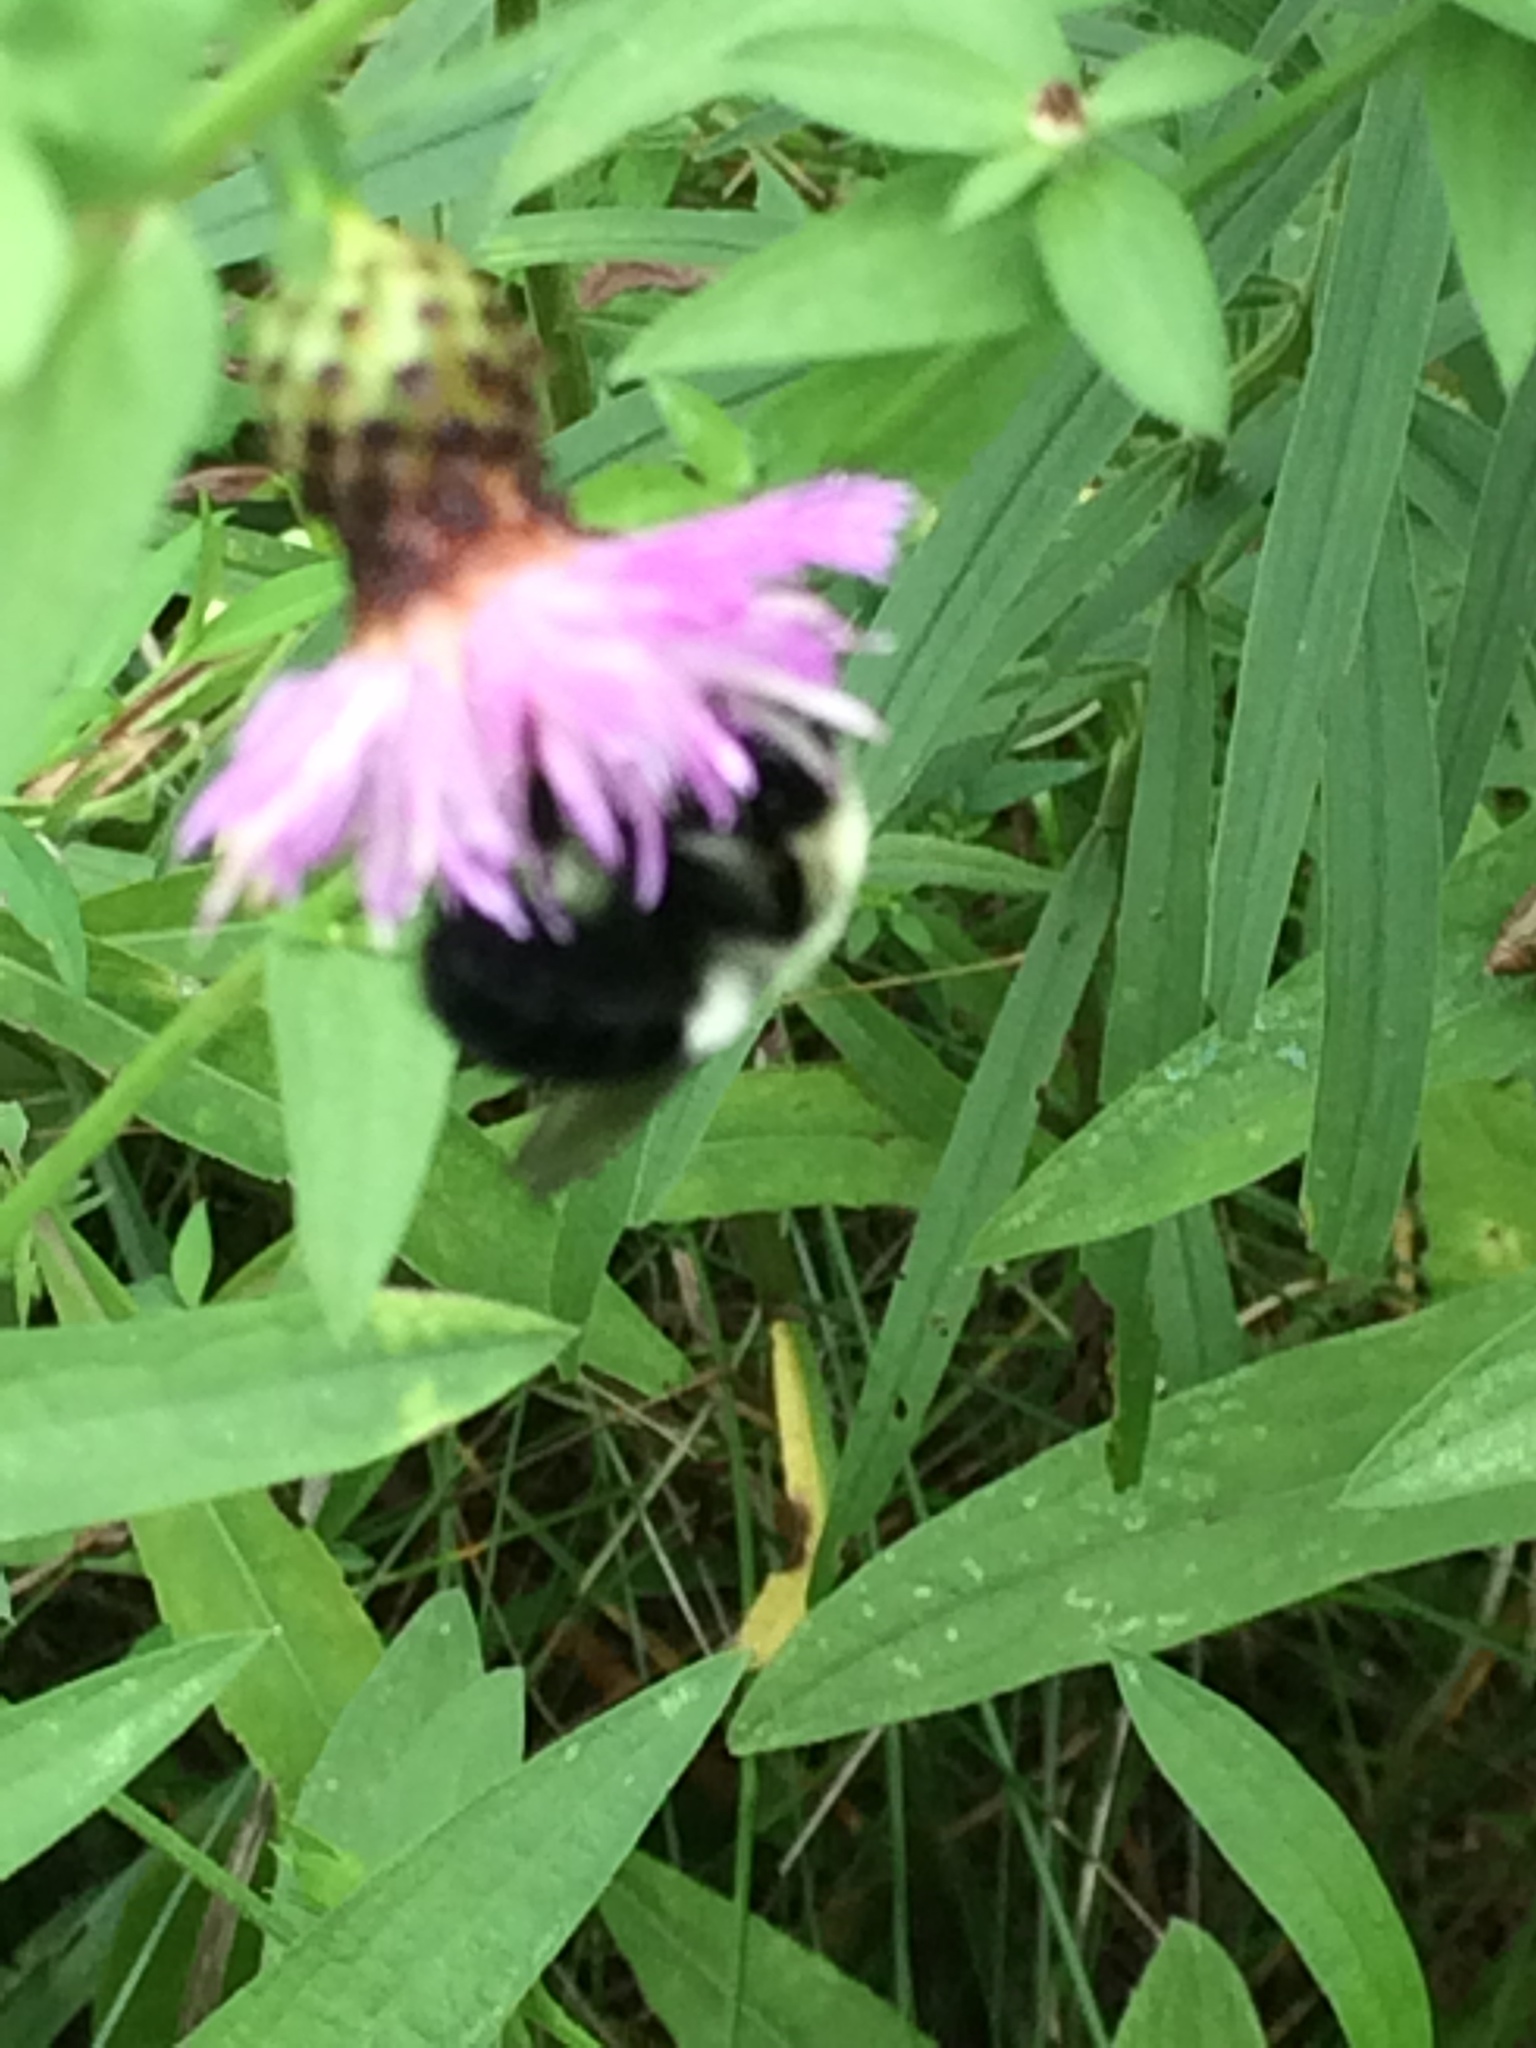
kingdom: Animalia
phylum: Arthropoda
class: Insecta
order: Hymenoptera
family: Apidae
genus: Bombus
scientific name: Bombus impatiens
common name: Common eastern bumble bee
